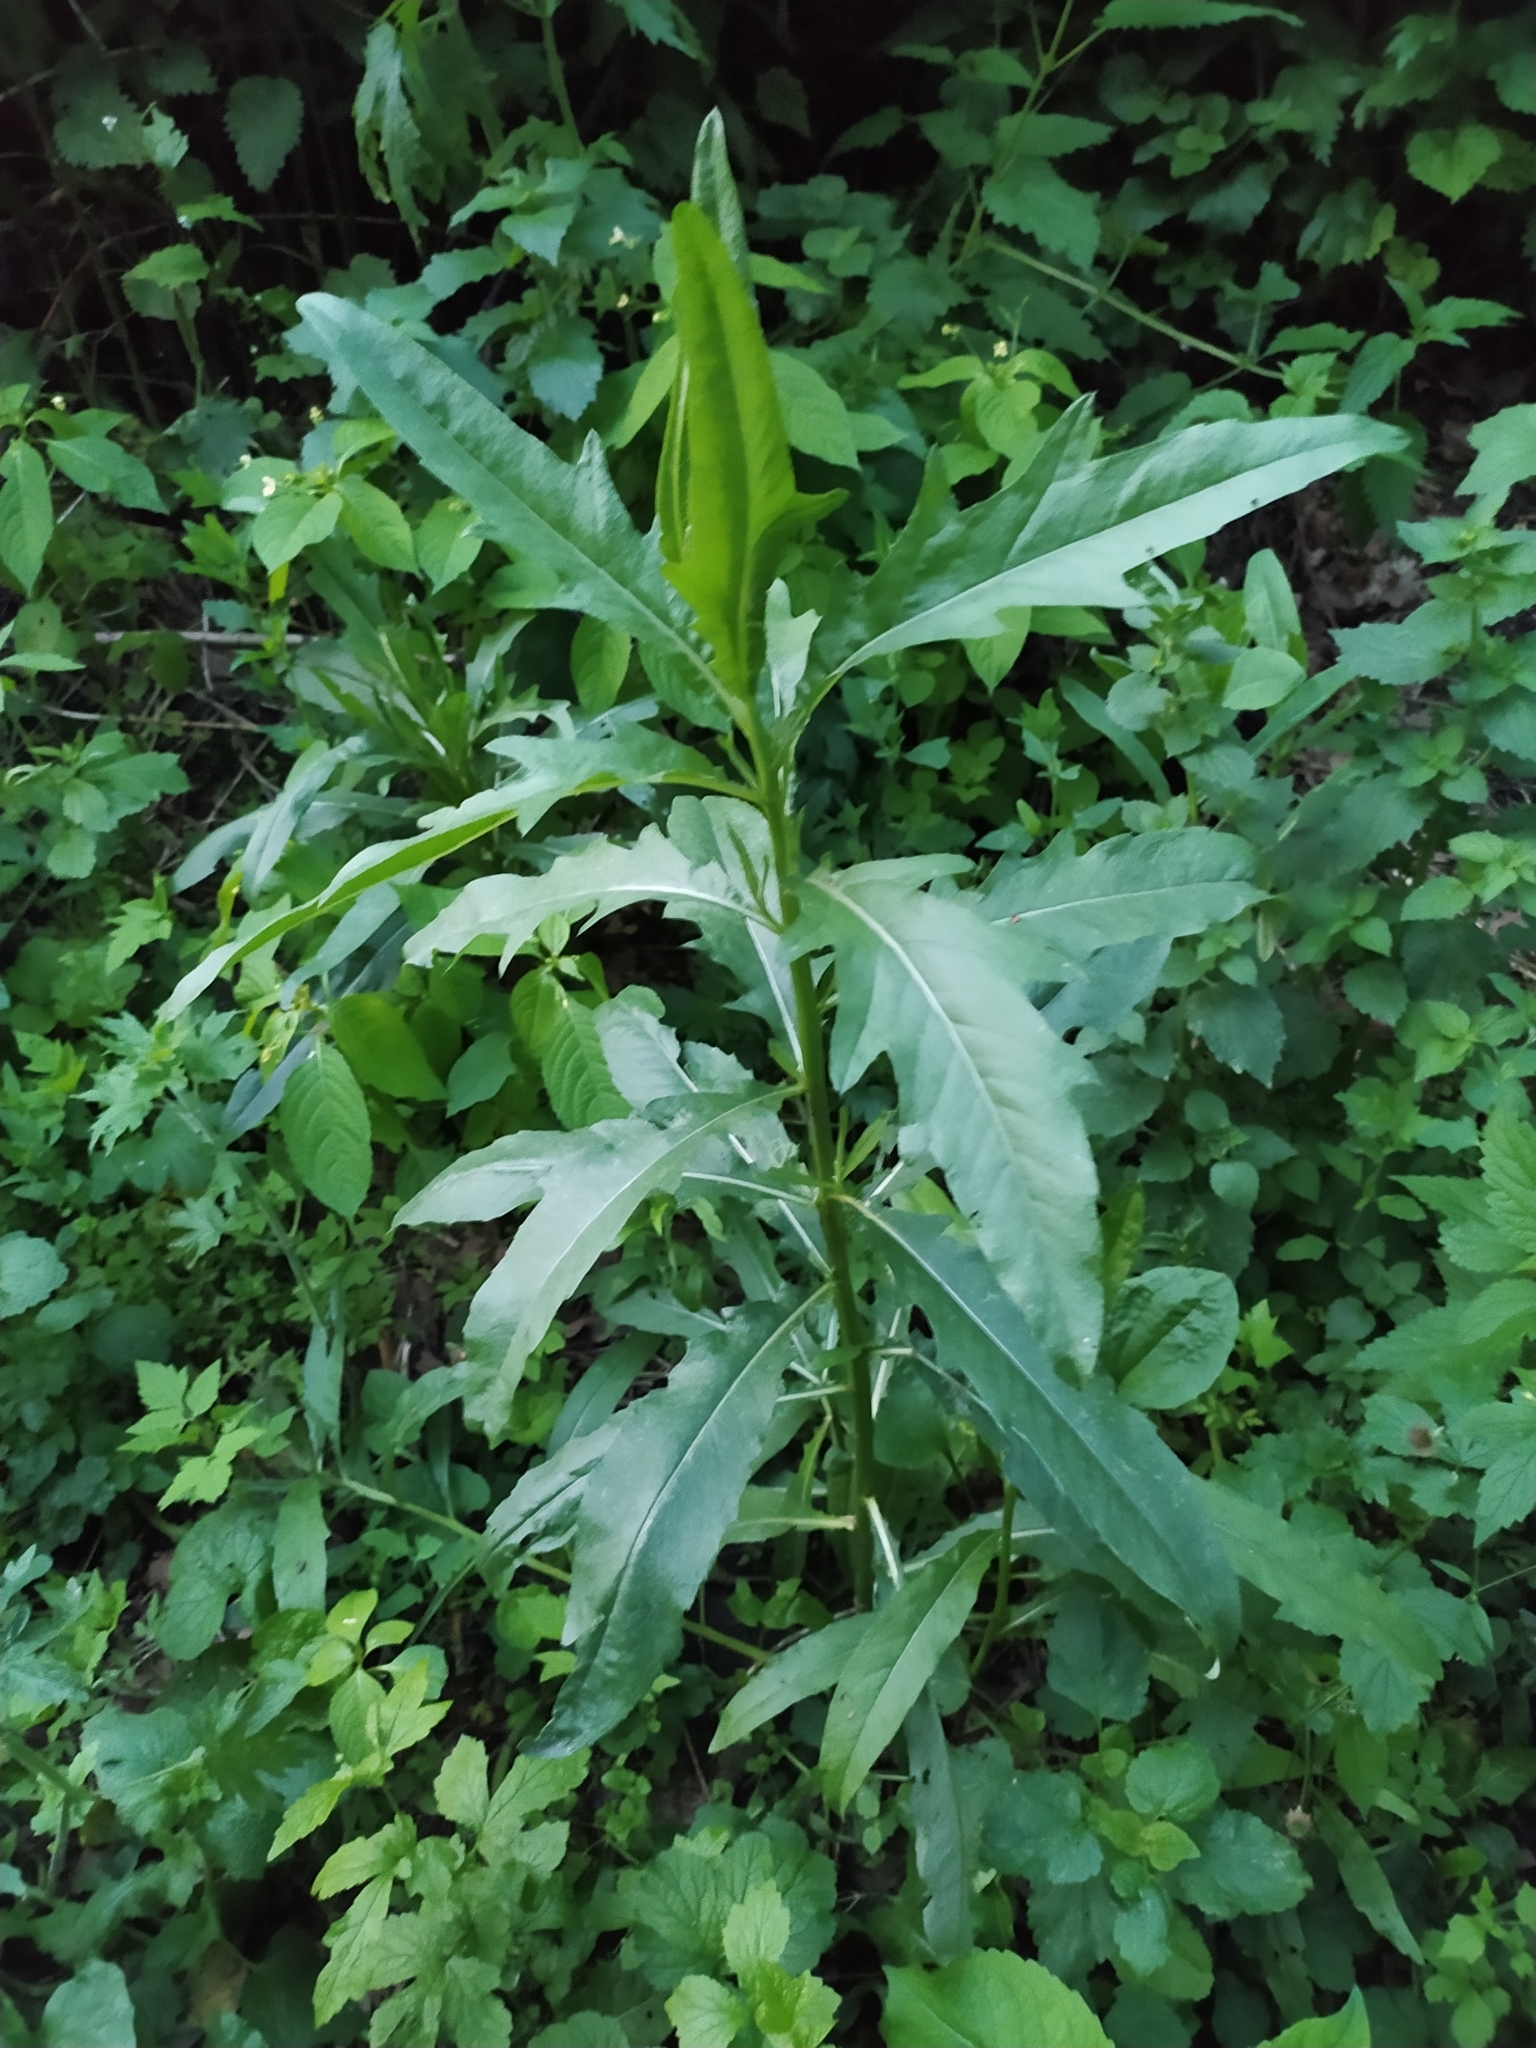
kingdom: Plantae
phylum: Tracheophyta
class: Magnoliopsida
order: Asterales
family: Asteraceae
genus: Cirsium
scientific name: Cirsium arvense
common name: Creeping thistle
